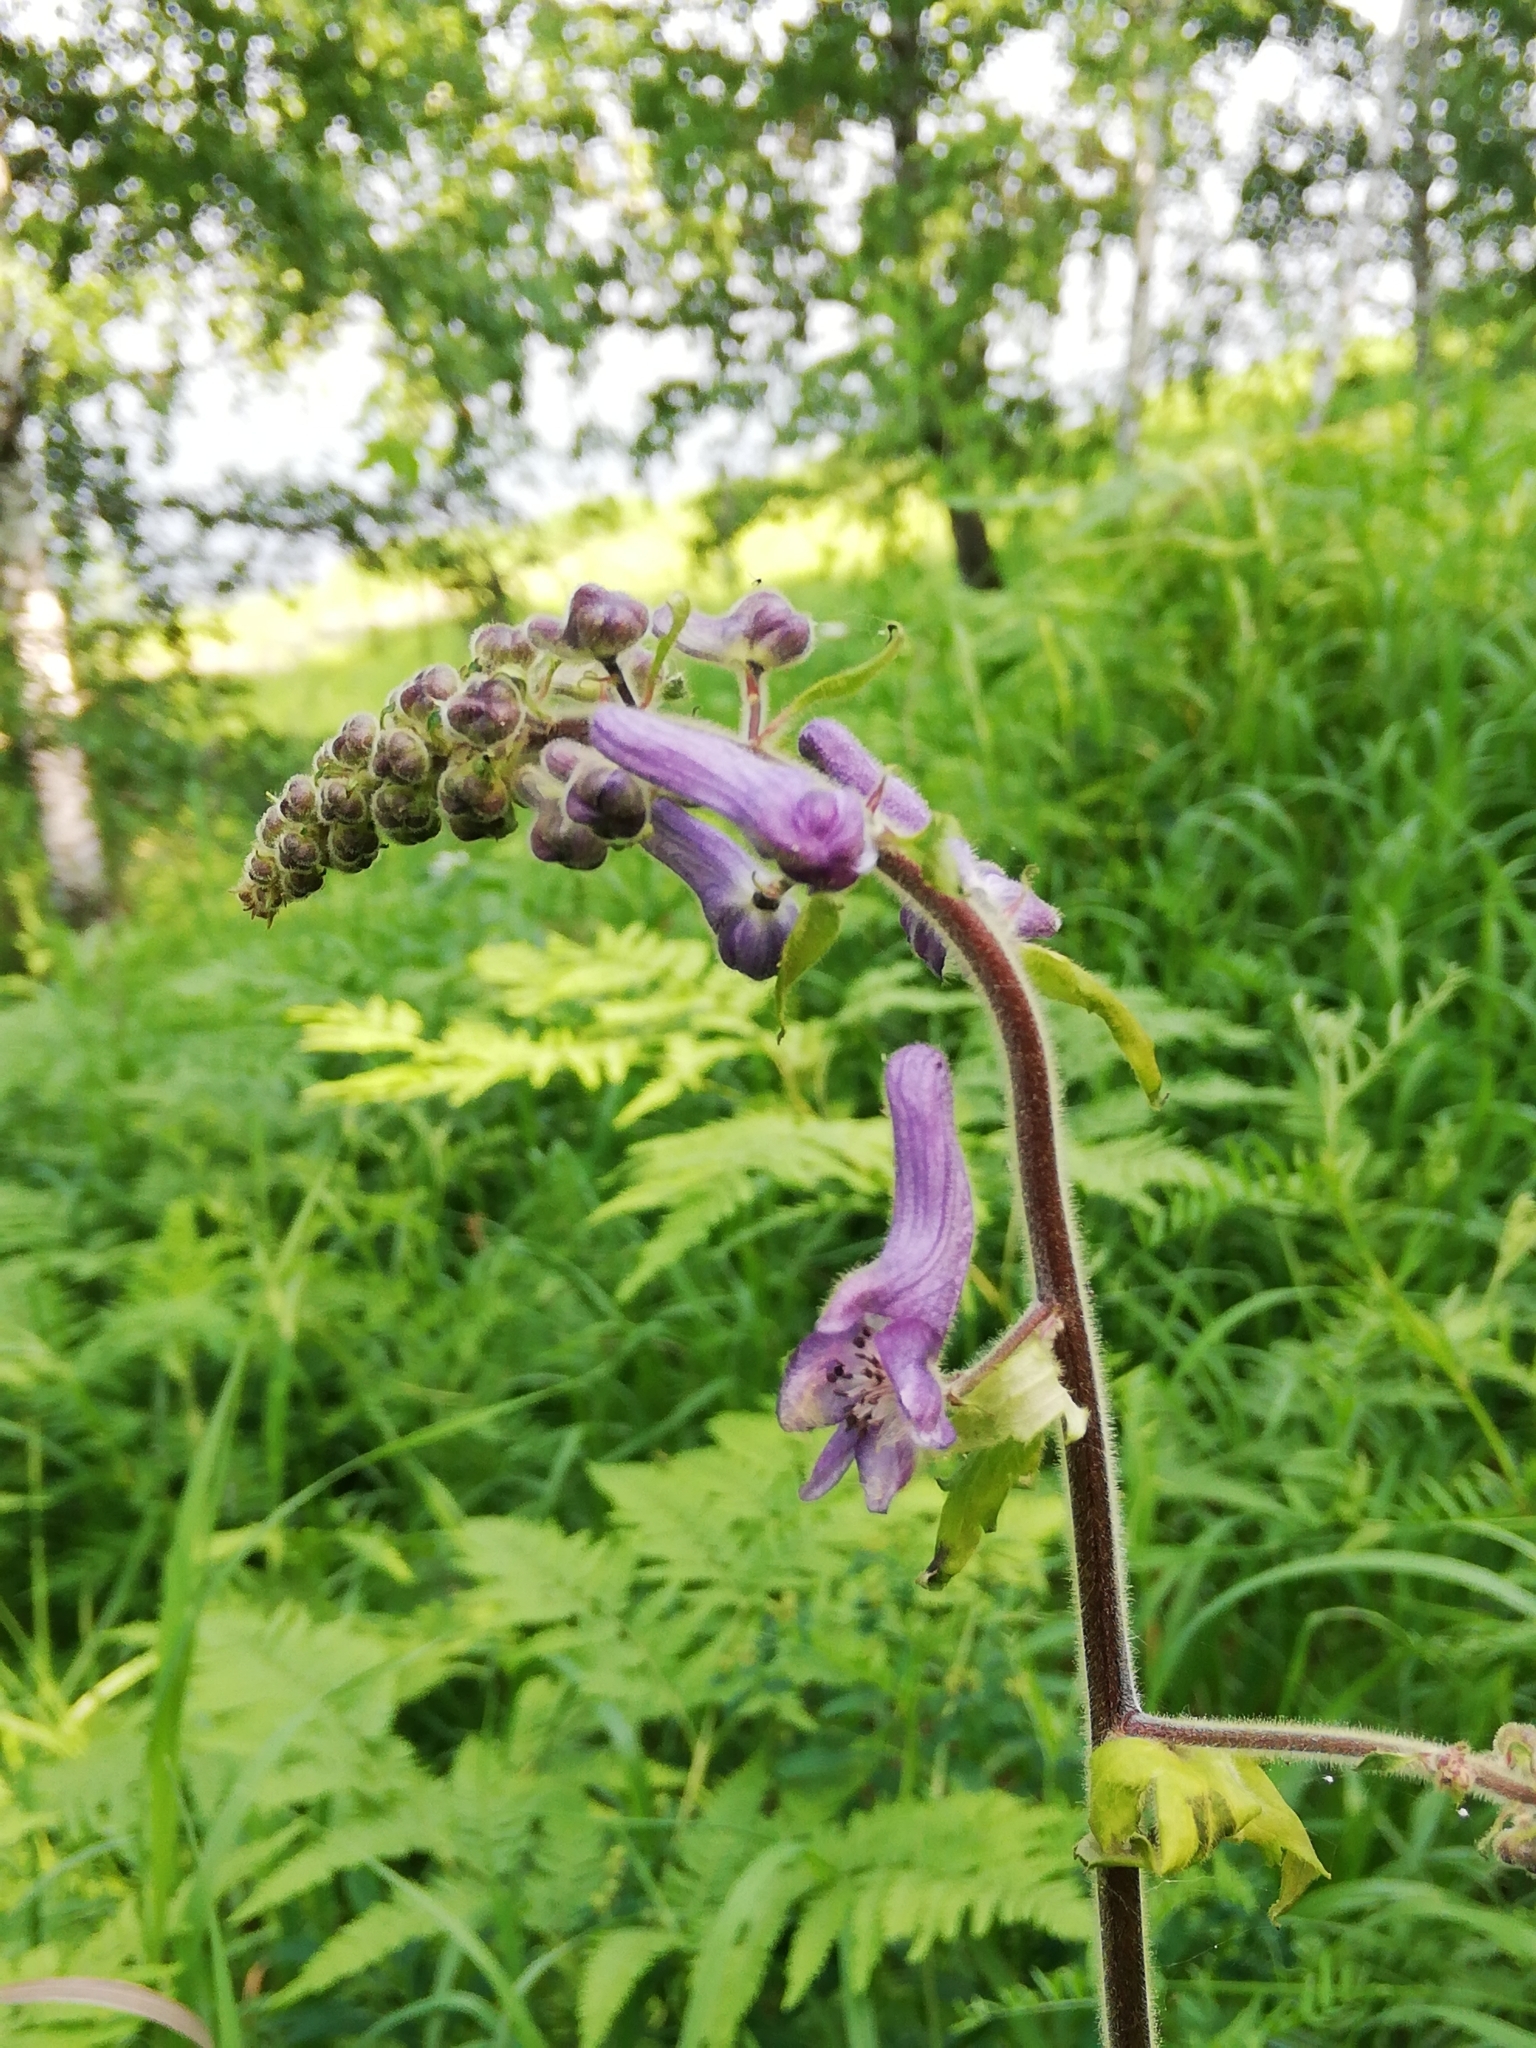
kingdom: Plantae
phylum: Tracheophyta
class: Magnoliopsida
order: Ranunculales
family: Ranunculaceae
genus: Aconitum
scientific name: Aconitum septentrionale
